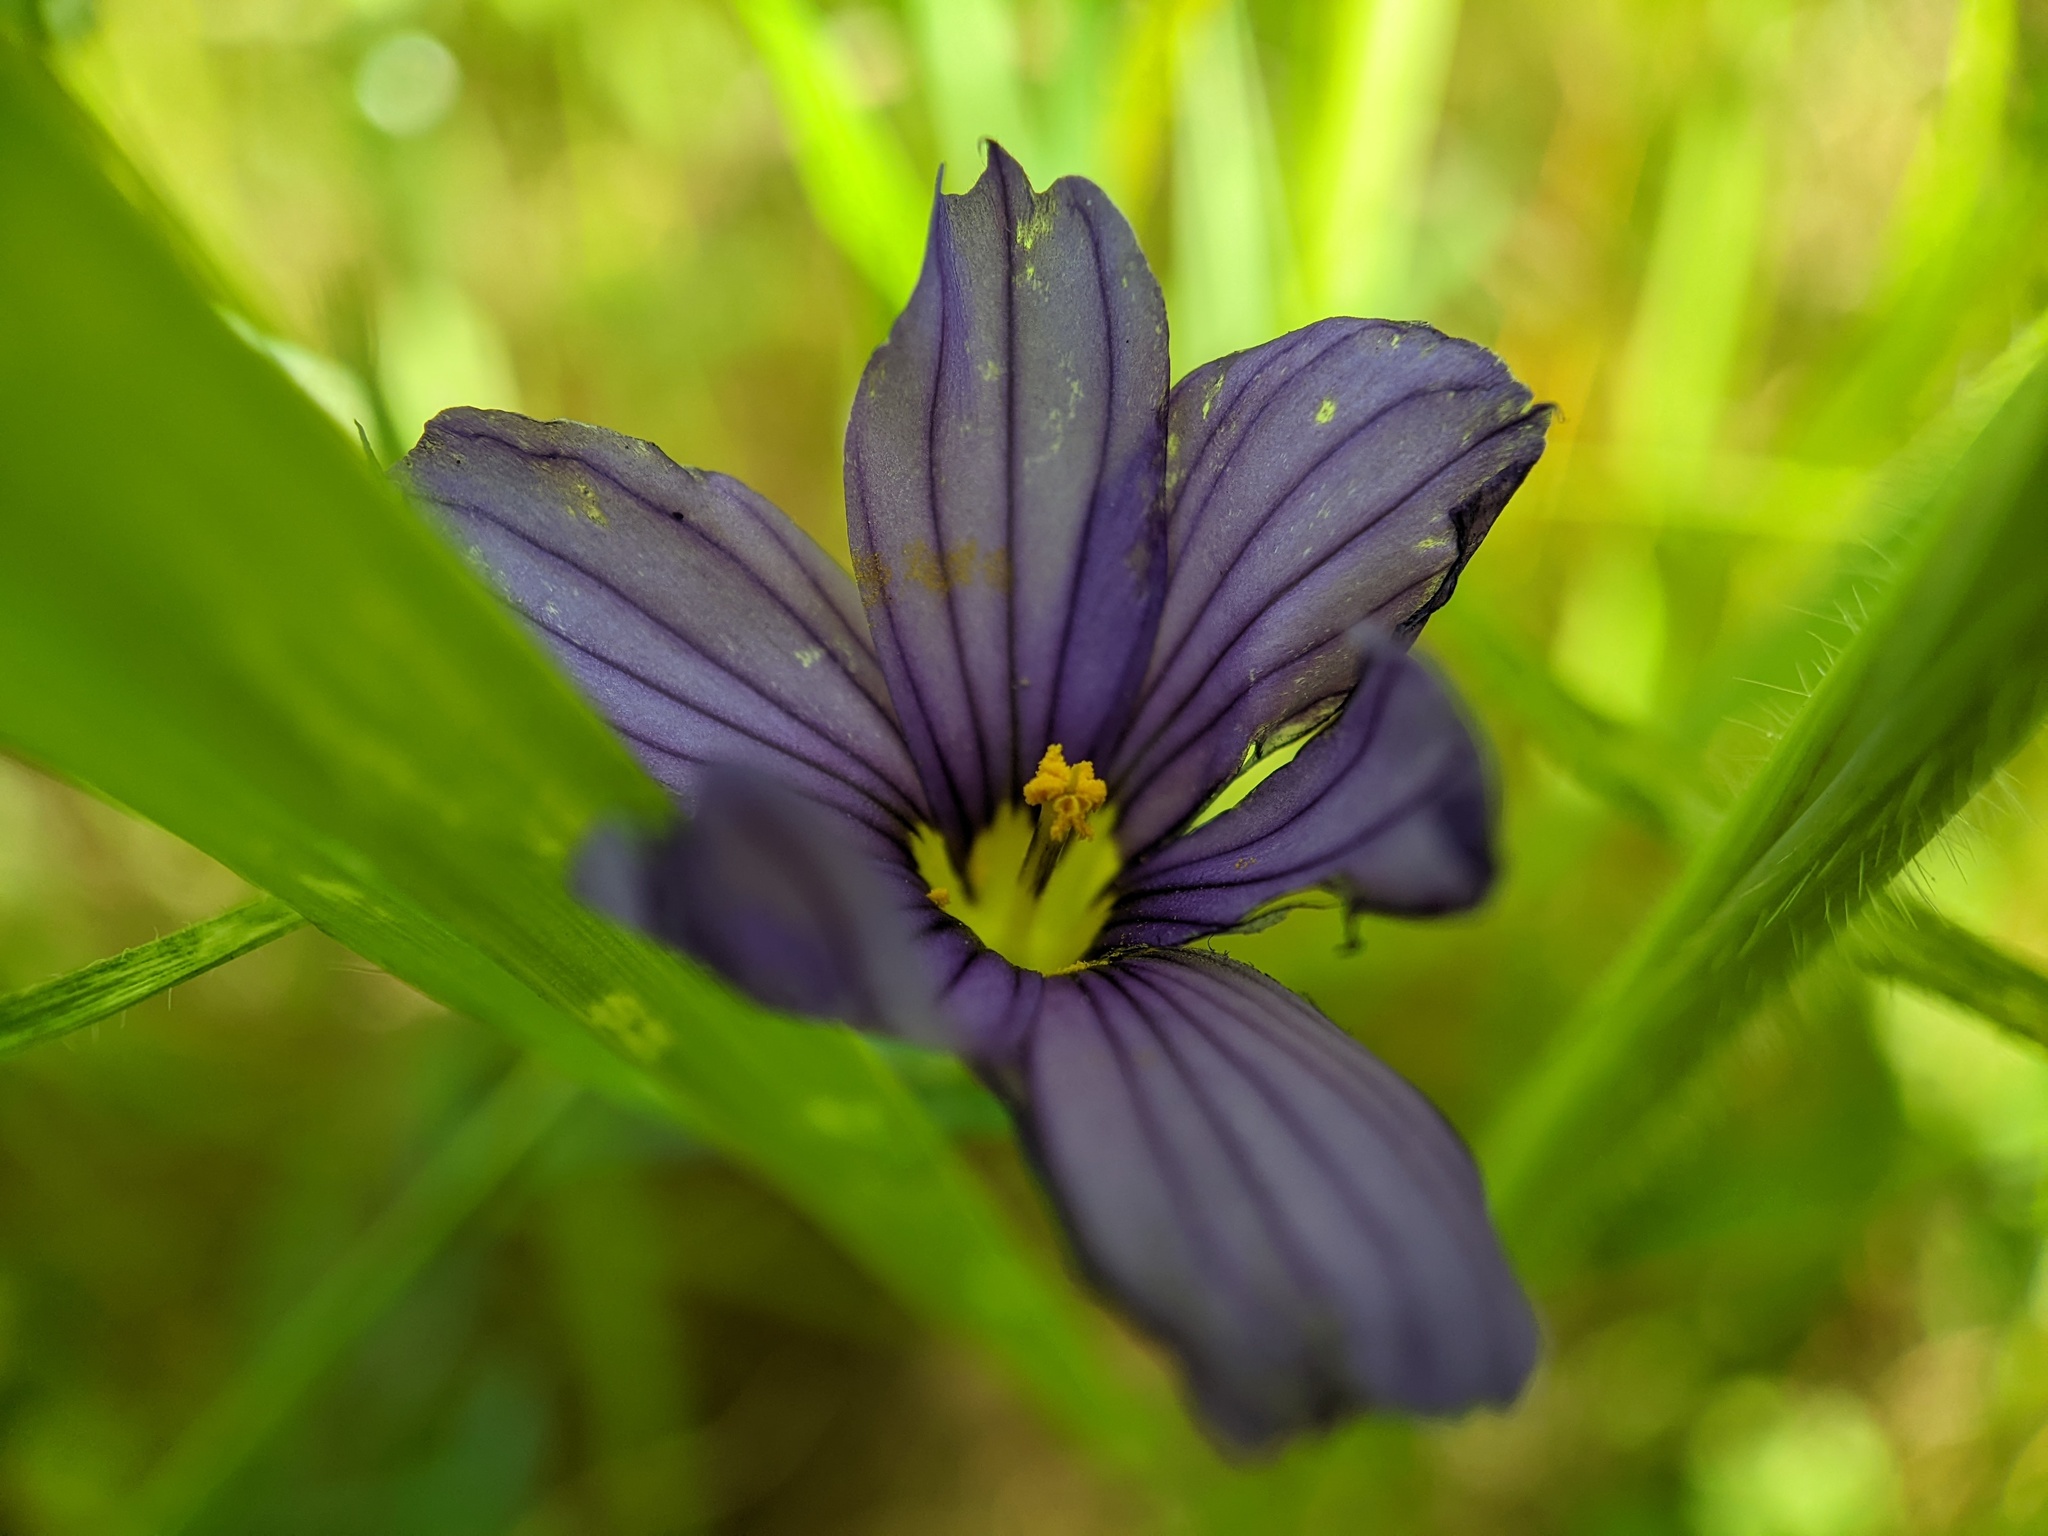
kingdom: Plantae
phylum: Tracheophyta
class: Liliopsida
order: Asparagales
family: Iridaceae
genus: Sisyrinchium
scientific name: Sisyrinchium bellum
